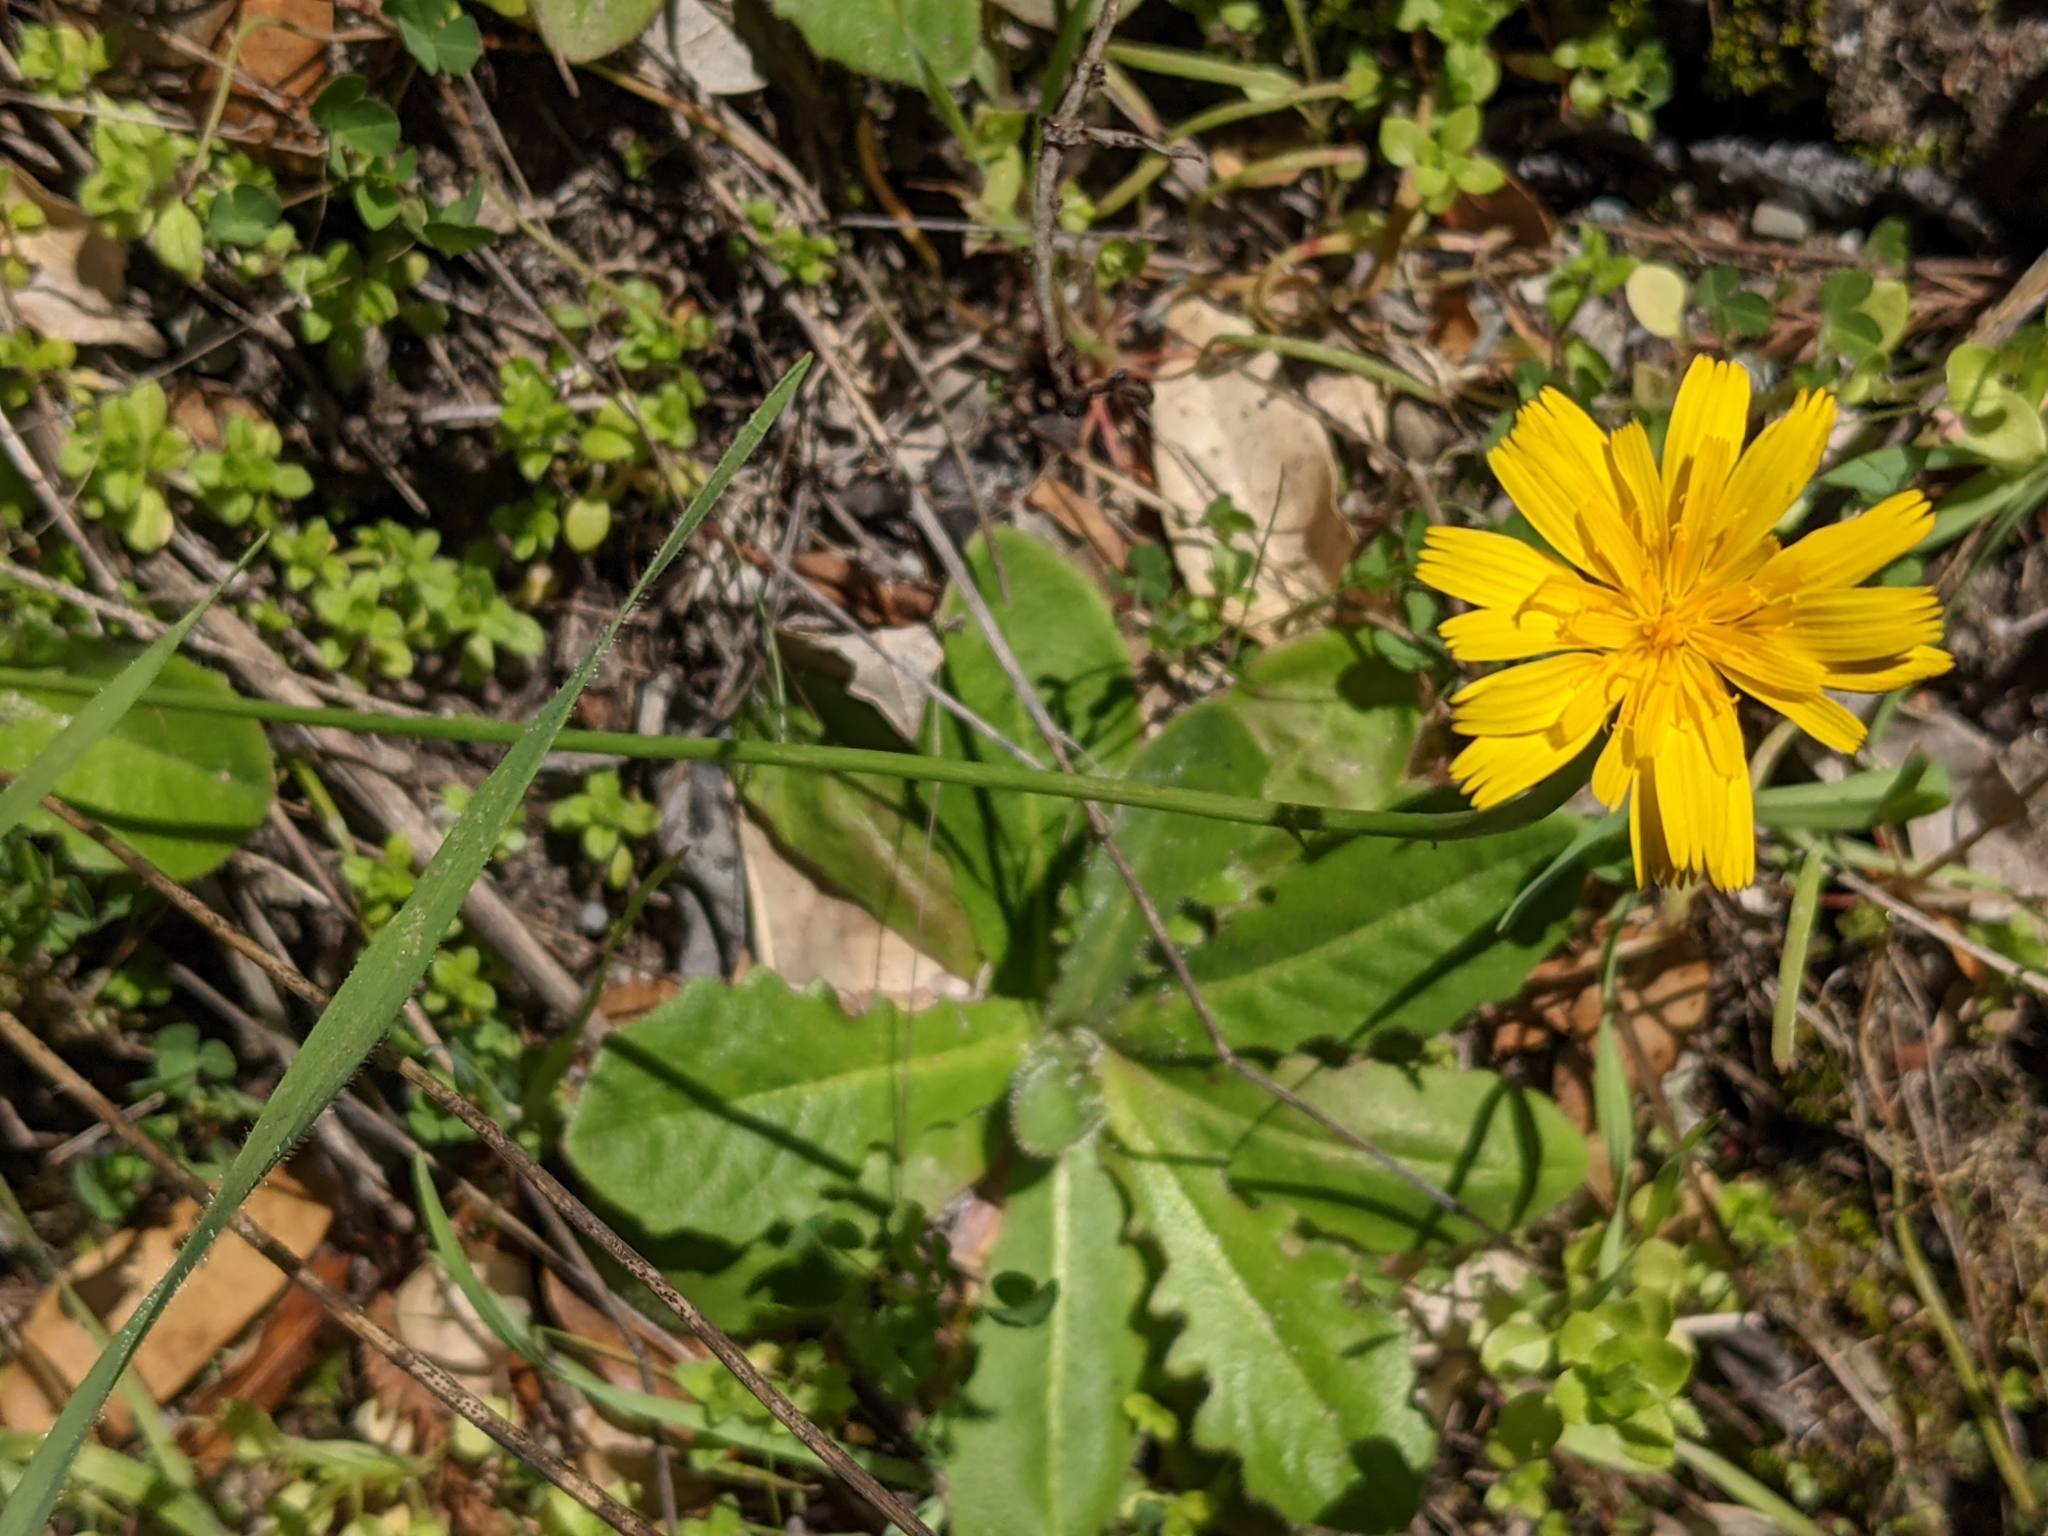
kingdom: Plantae
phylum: Tracheophyta
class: Magnoliopsida
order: Asterales
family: Asteraceae
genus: Hypochaeris
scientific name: Hypochaeris radicata
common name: Flatweed
